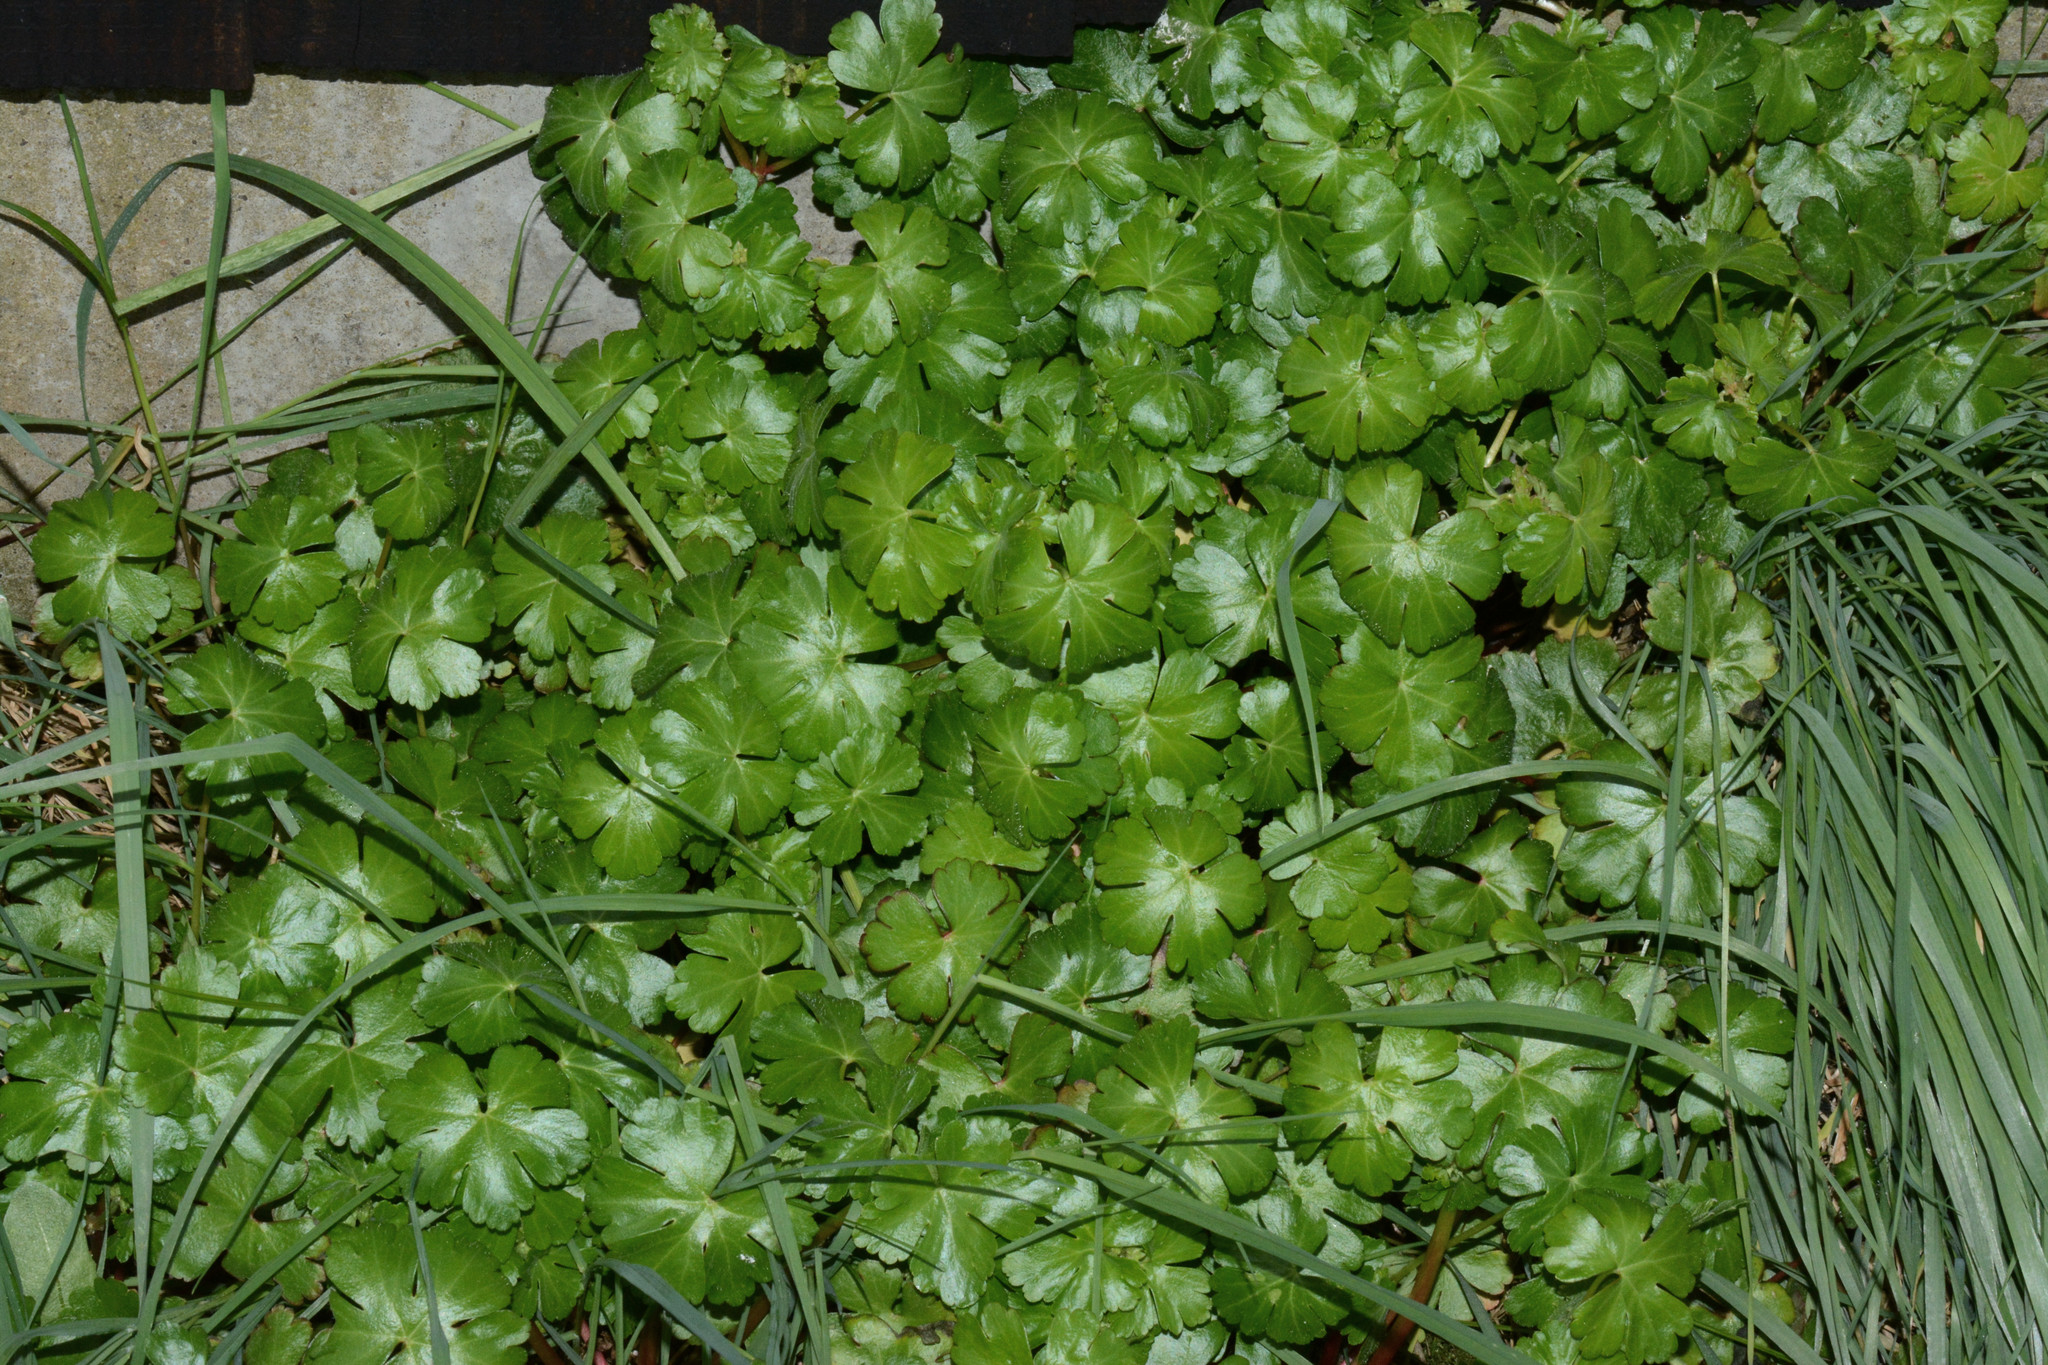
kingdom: Plantae
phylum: Tracheophyta
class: Magnoliopsida
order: Geraniales
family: Geraniaceae
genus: Geranium
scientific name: Geranium lucidum
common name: Shining crane's-bill
